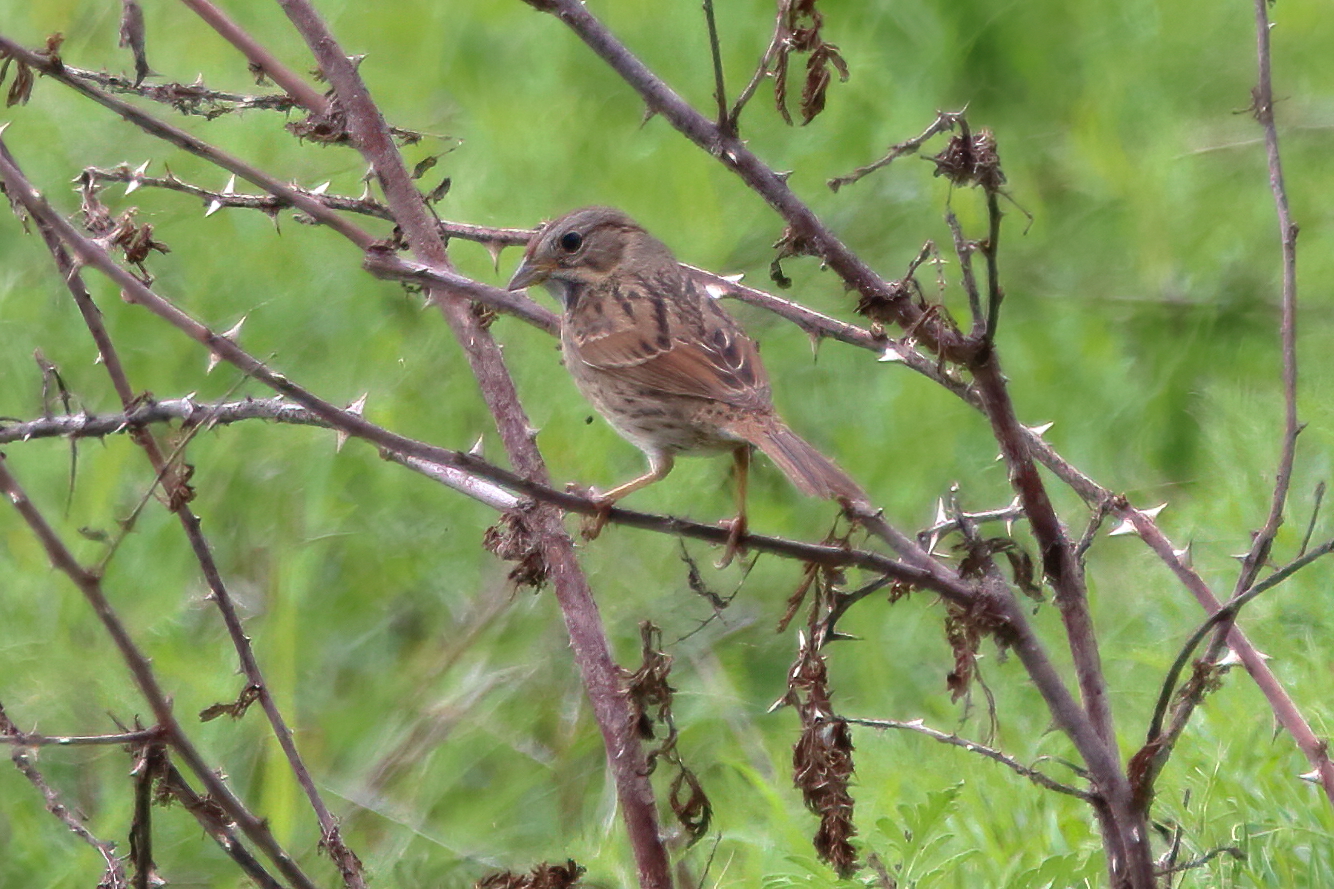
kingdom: Animalia
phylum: Chordata
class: Aves
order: Passeriformes
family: Passerellidae
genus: Melospiza
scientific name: Melospiza lincolnii
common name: Lincoln's sparrow
